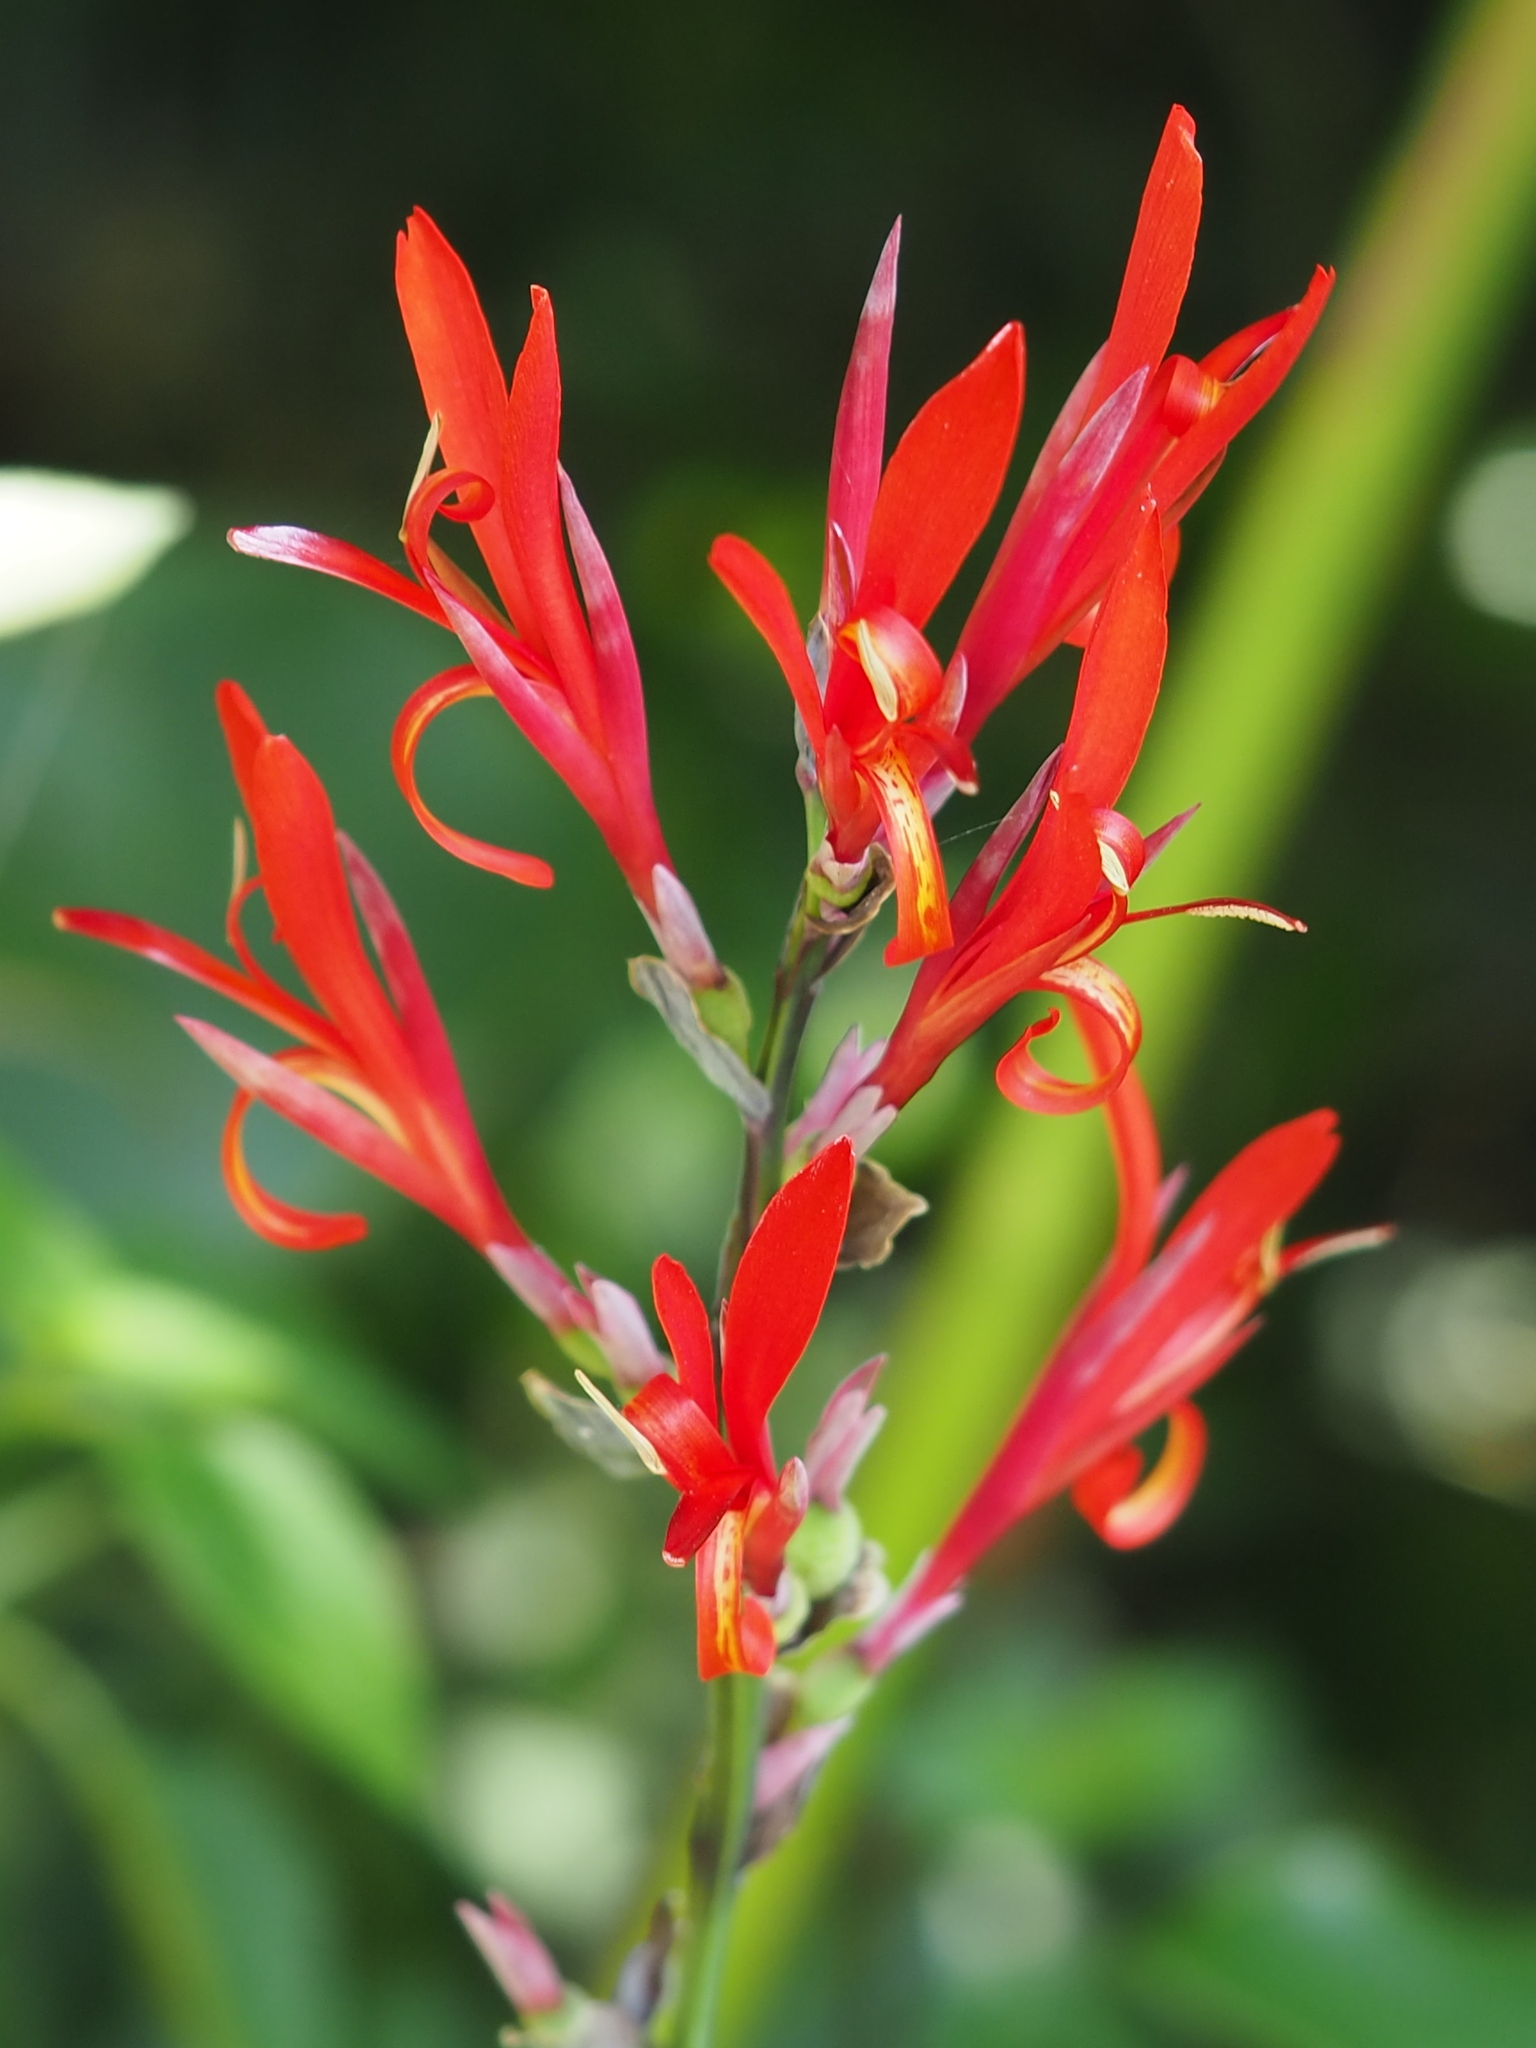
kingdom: Plantae
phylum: Tracheophyta
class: Liliopsida
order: Zingiberales
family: Cannaceae
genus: Canna
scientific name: Canna indica
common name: Indian shot
